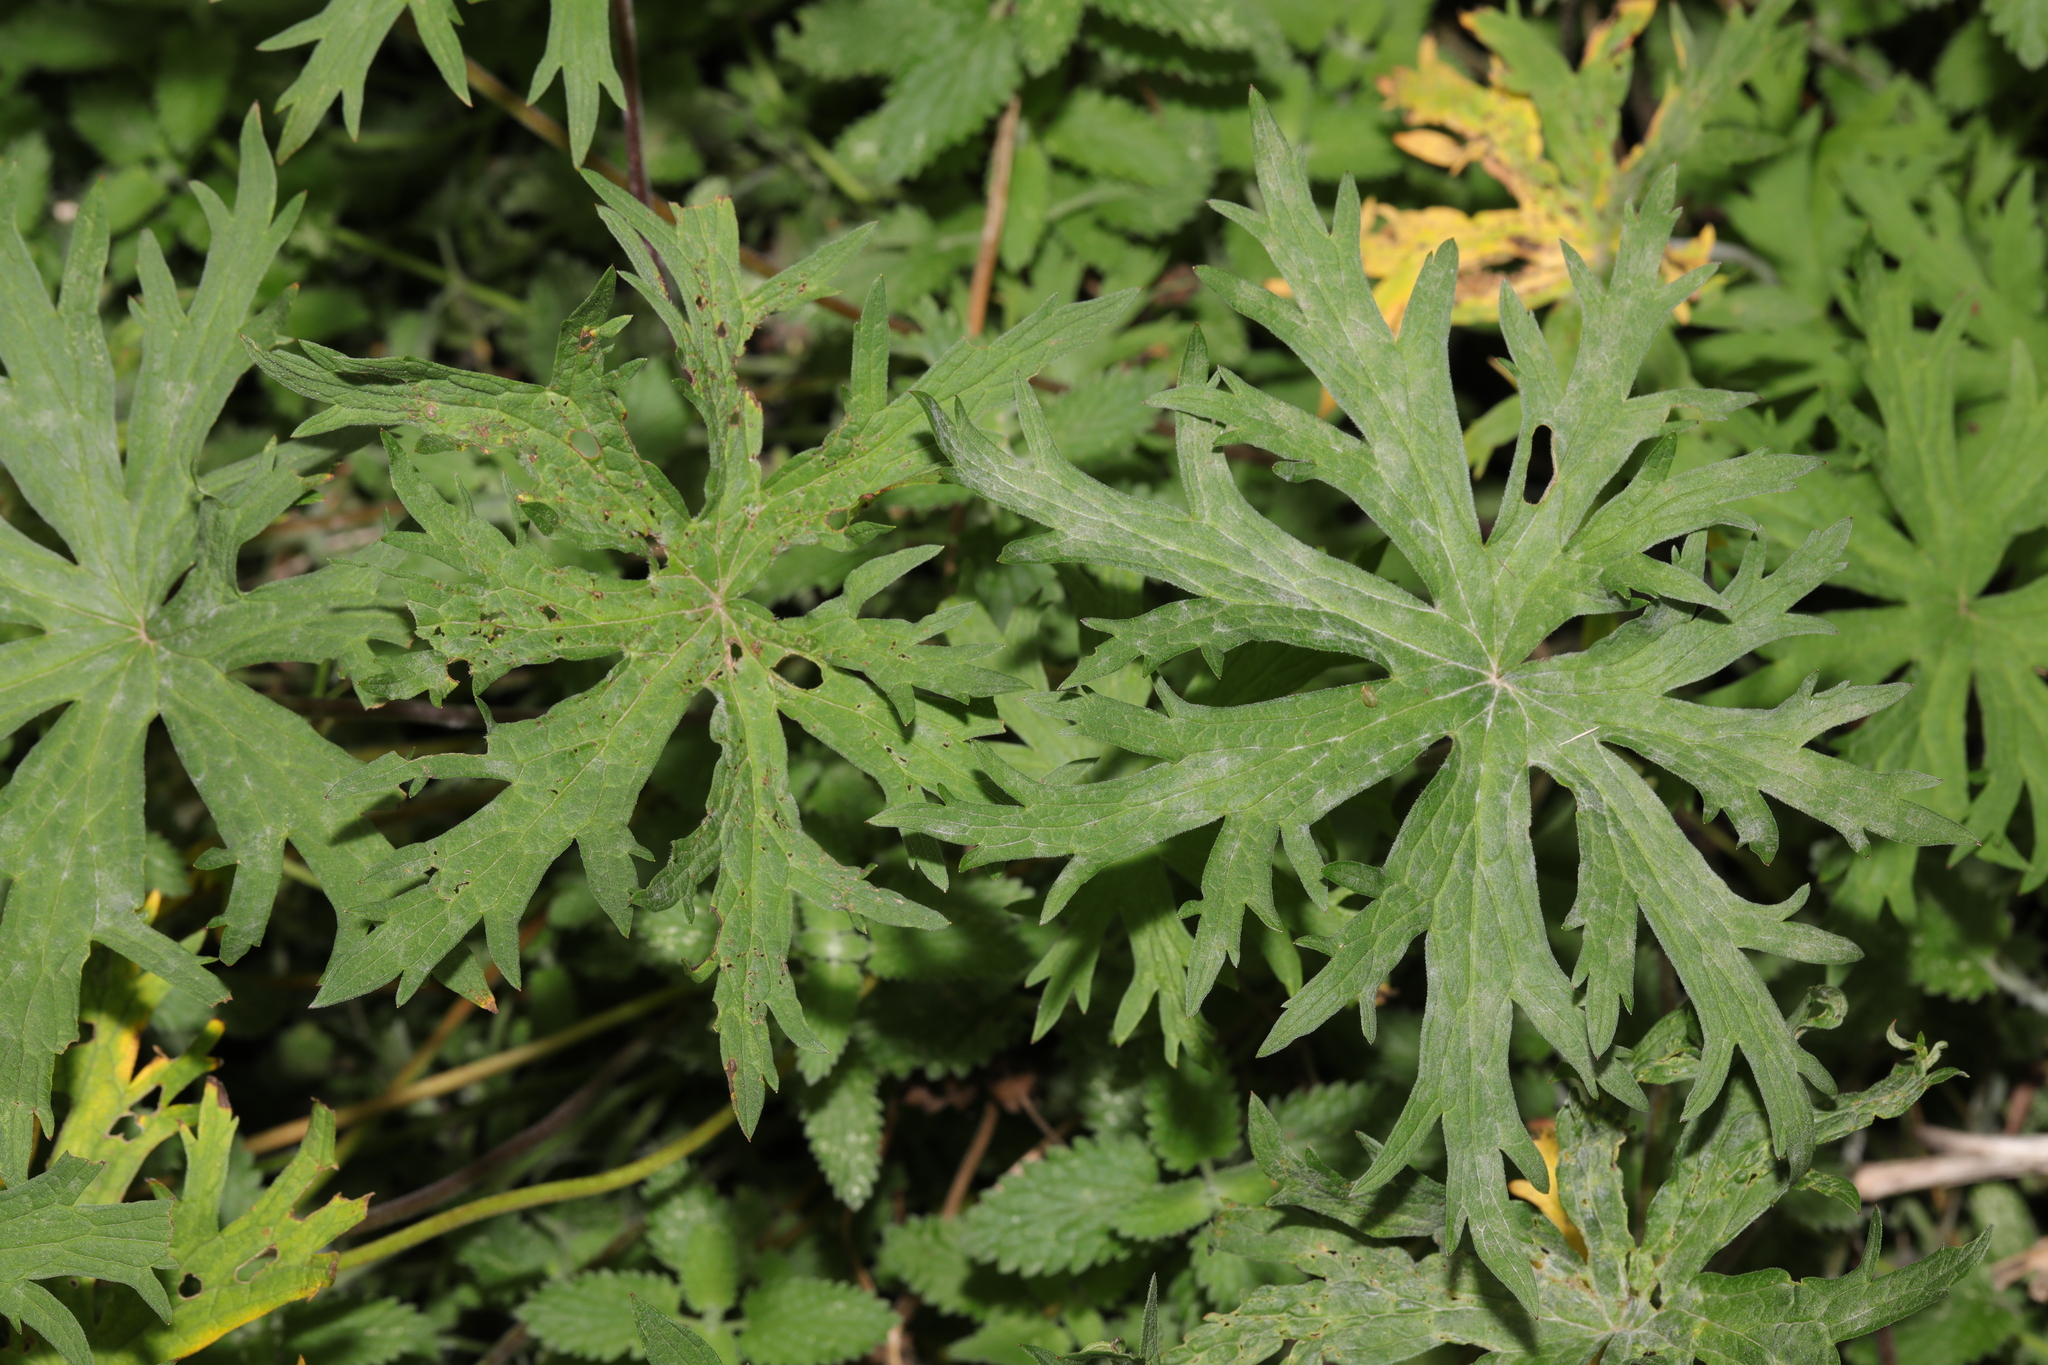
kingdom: Plantae
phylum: Tracheophyta
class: Magnoliopsida
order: Geraniales
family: Geraniaceae
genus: Geranium
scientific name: Geranium pratense
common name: Meadow crane's-bill
